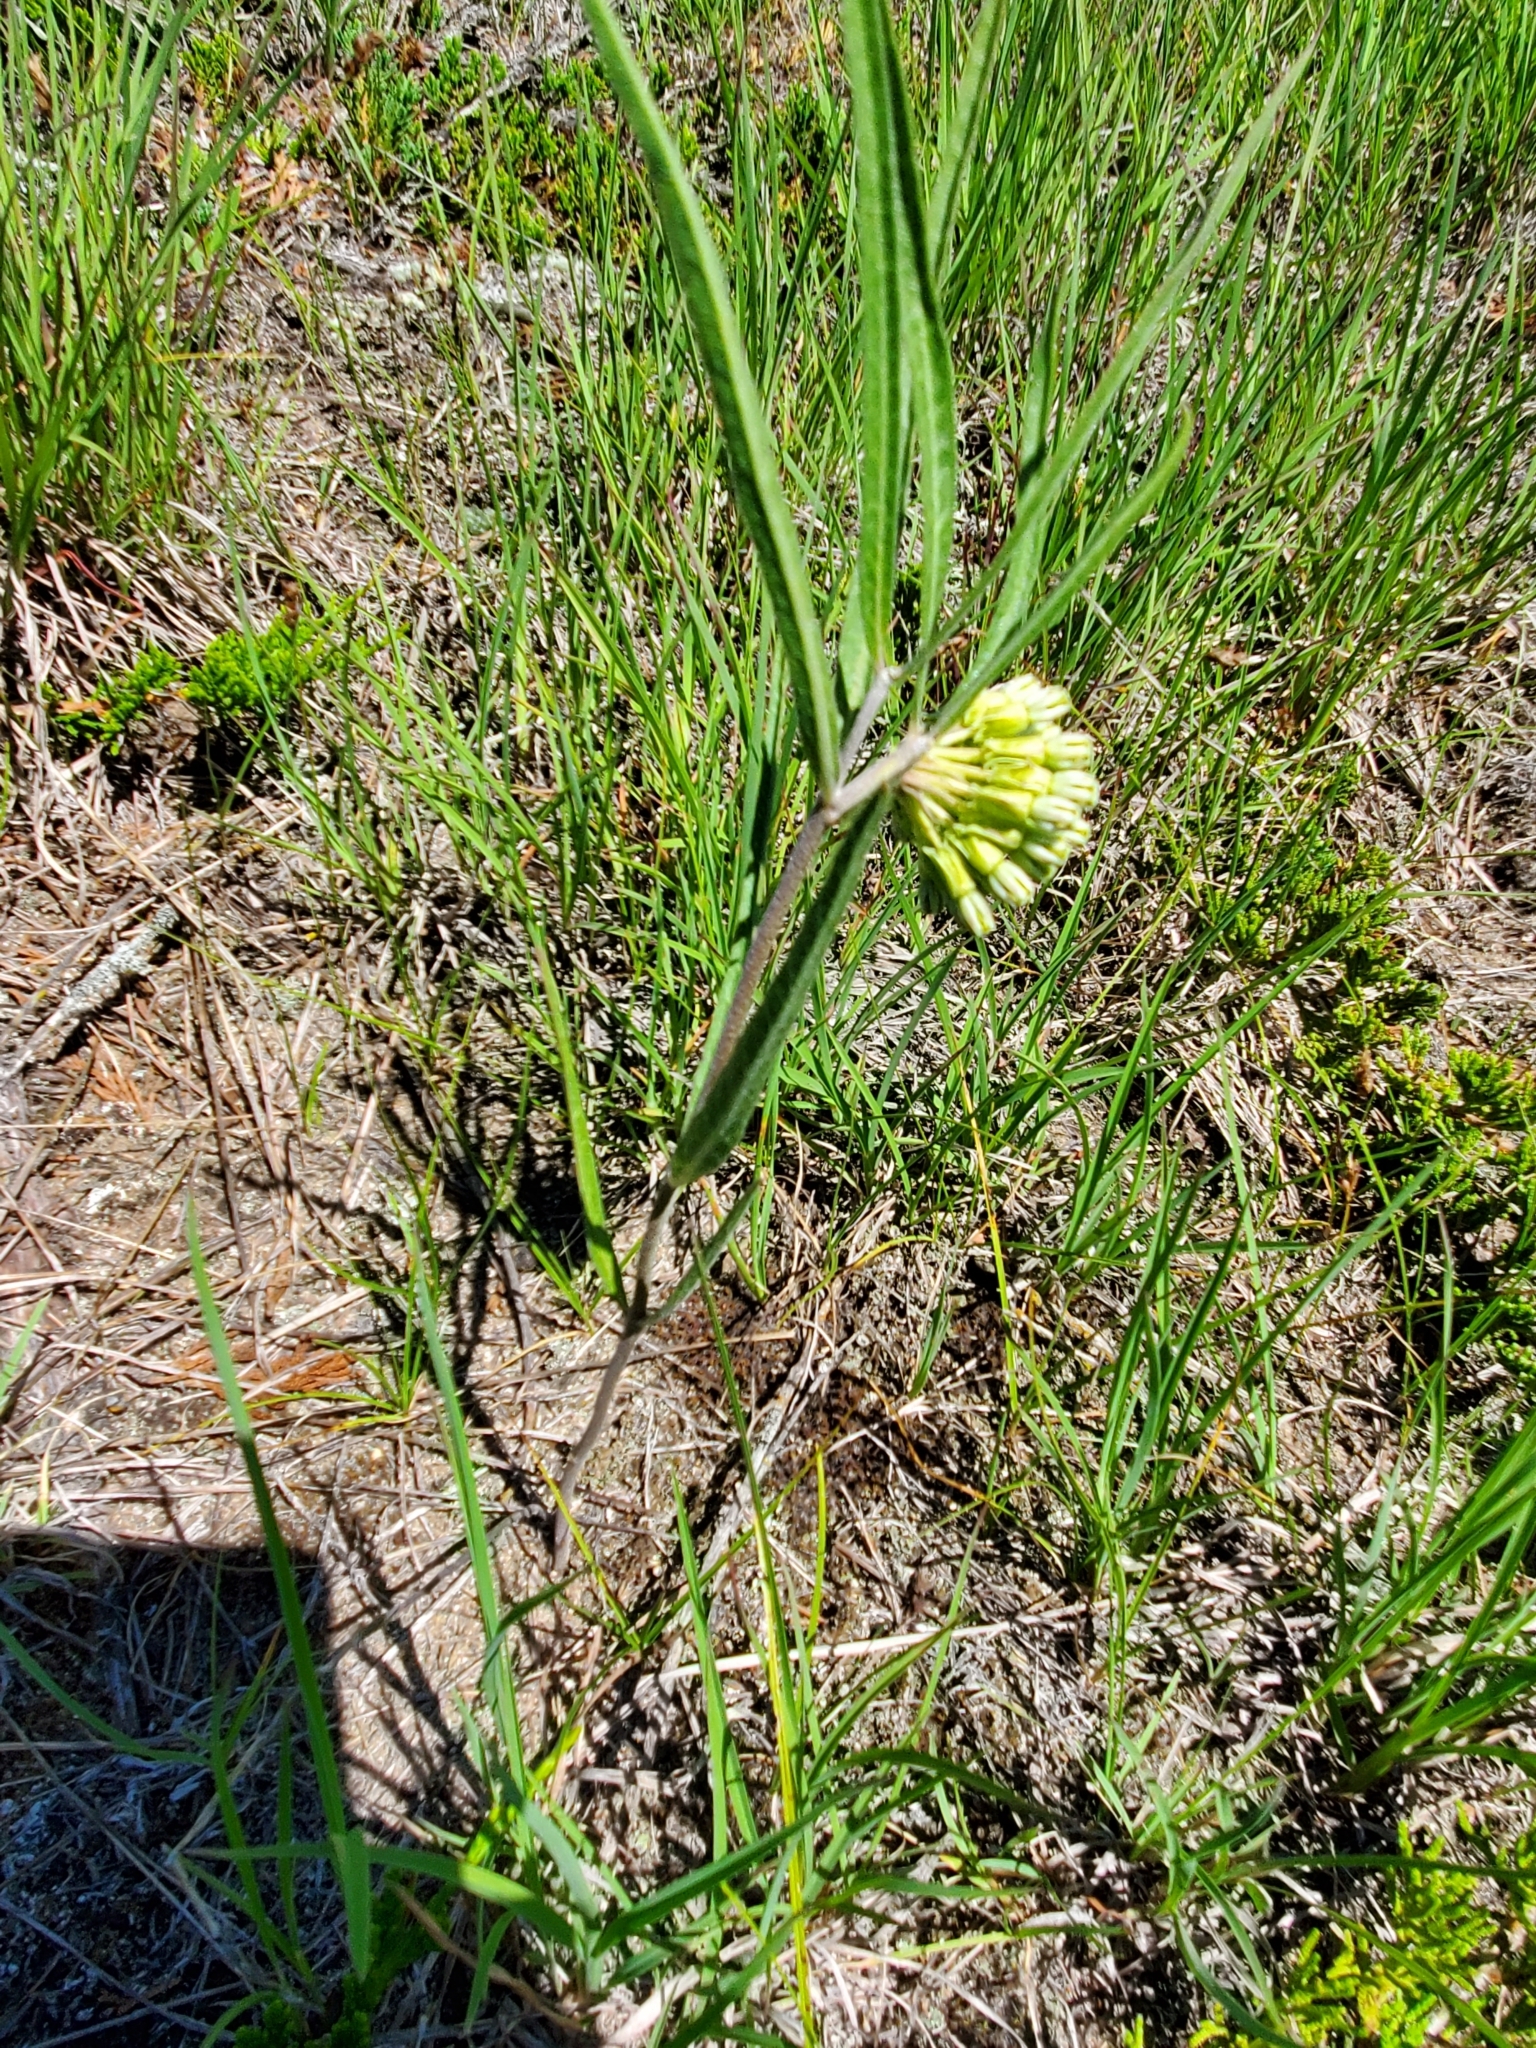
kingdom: Plantae
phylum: Tracheophyta
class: Magnoliopsida
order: Gentianales
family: Apocynaceae
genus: Asclepias
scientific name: Asclepias viridiflora
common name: Green comet milkweed
